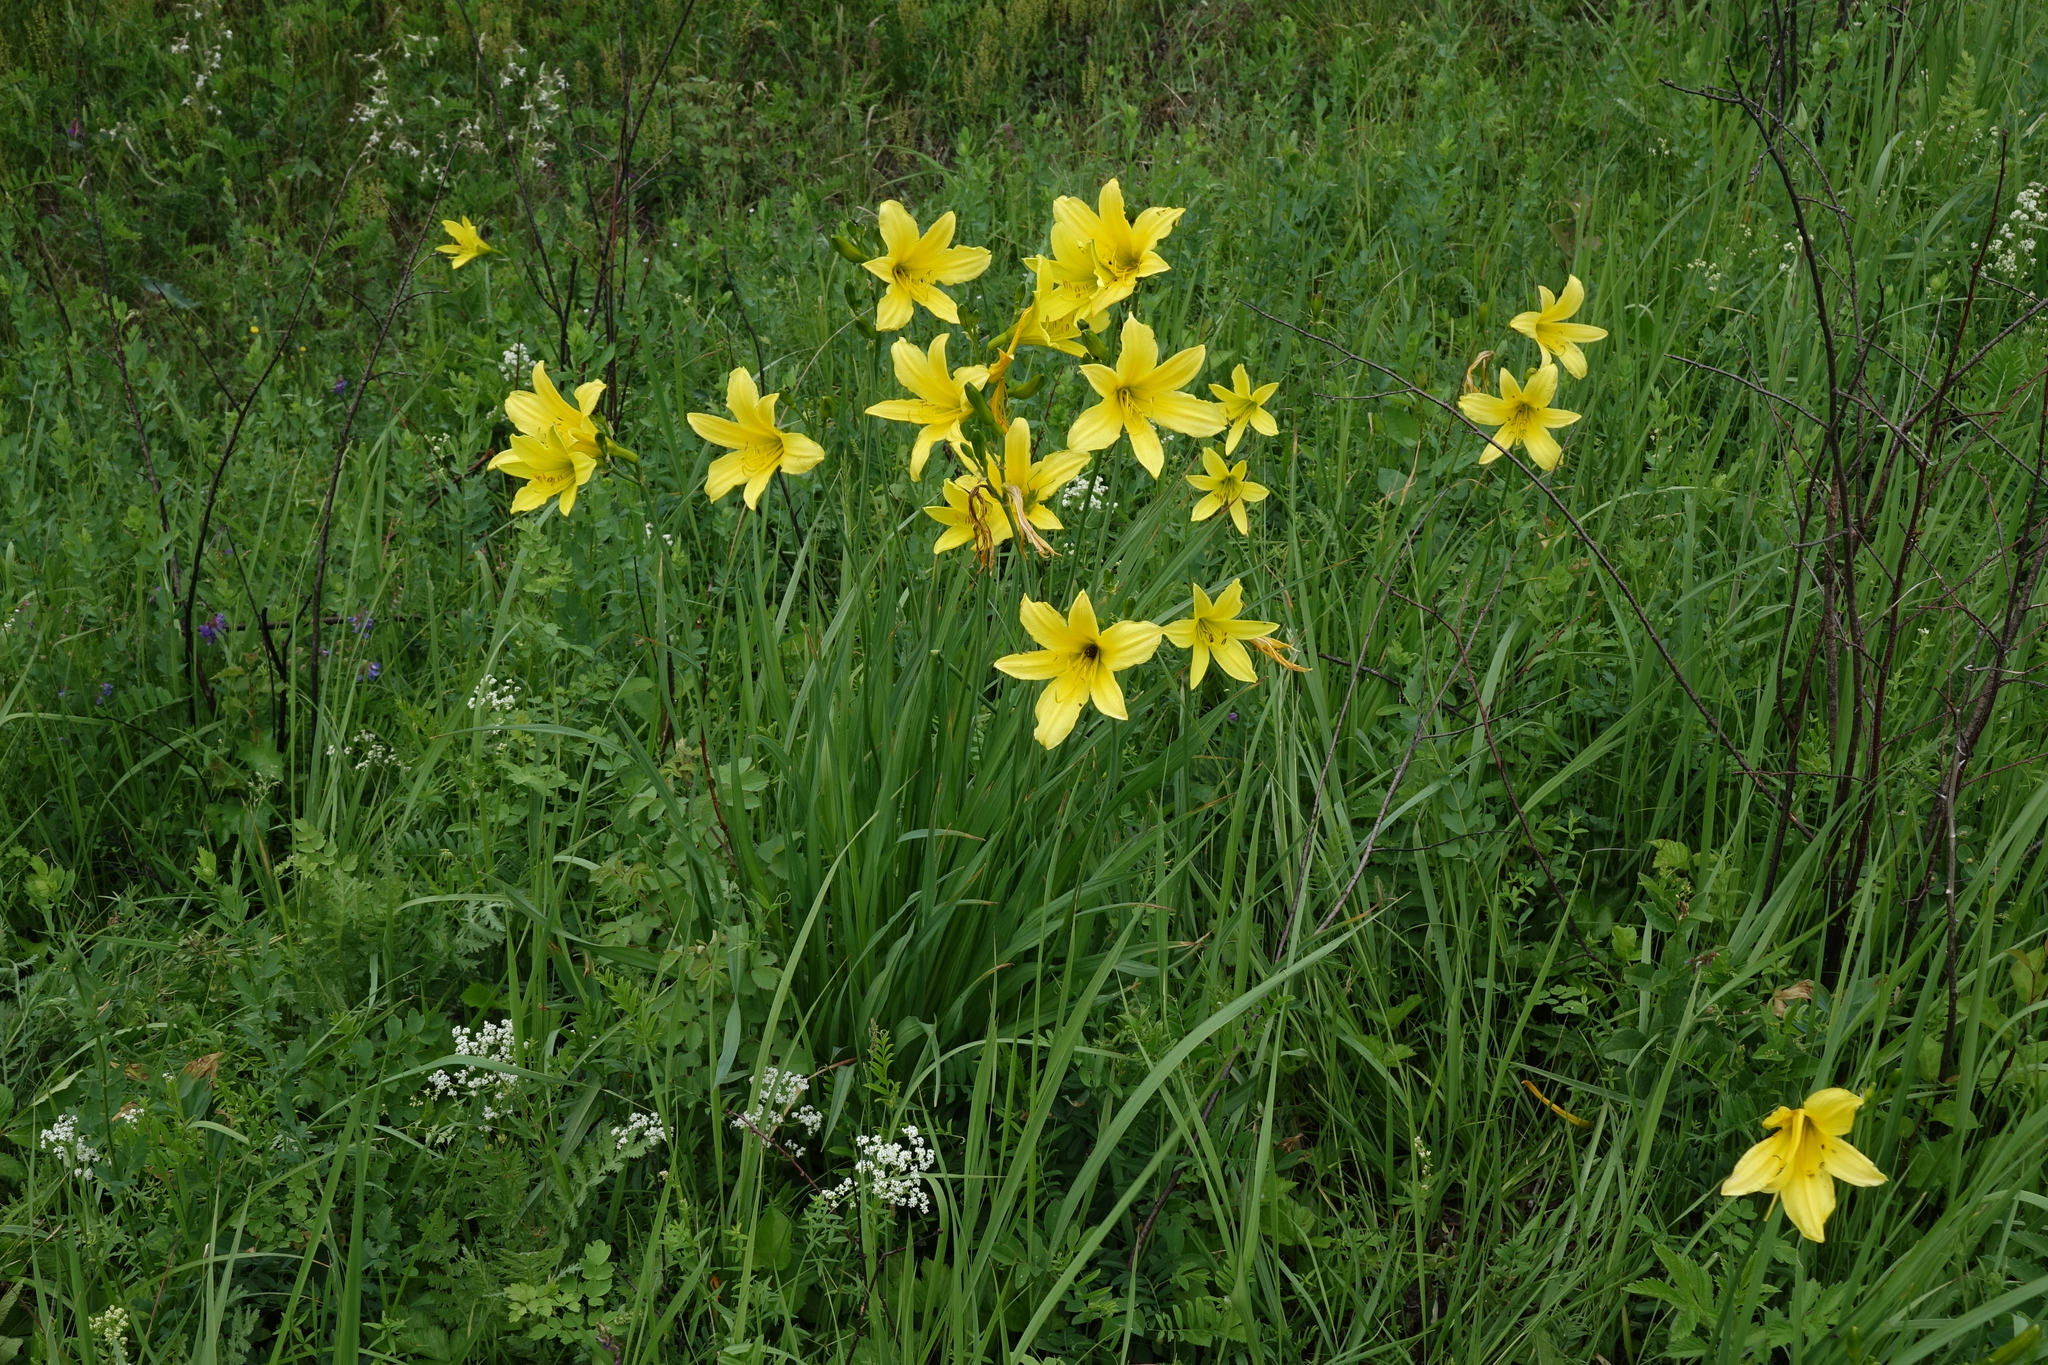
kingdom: Plantae
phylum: Tracheophyta
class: Liliopsida
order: Asparagales
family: Asphodelaceae
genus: Hemerocallis
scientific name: Hemerocallis minor
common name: Small daylily
